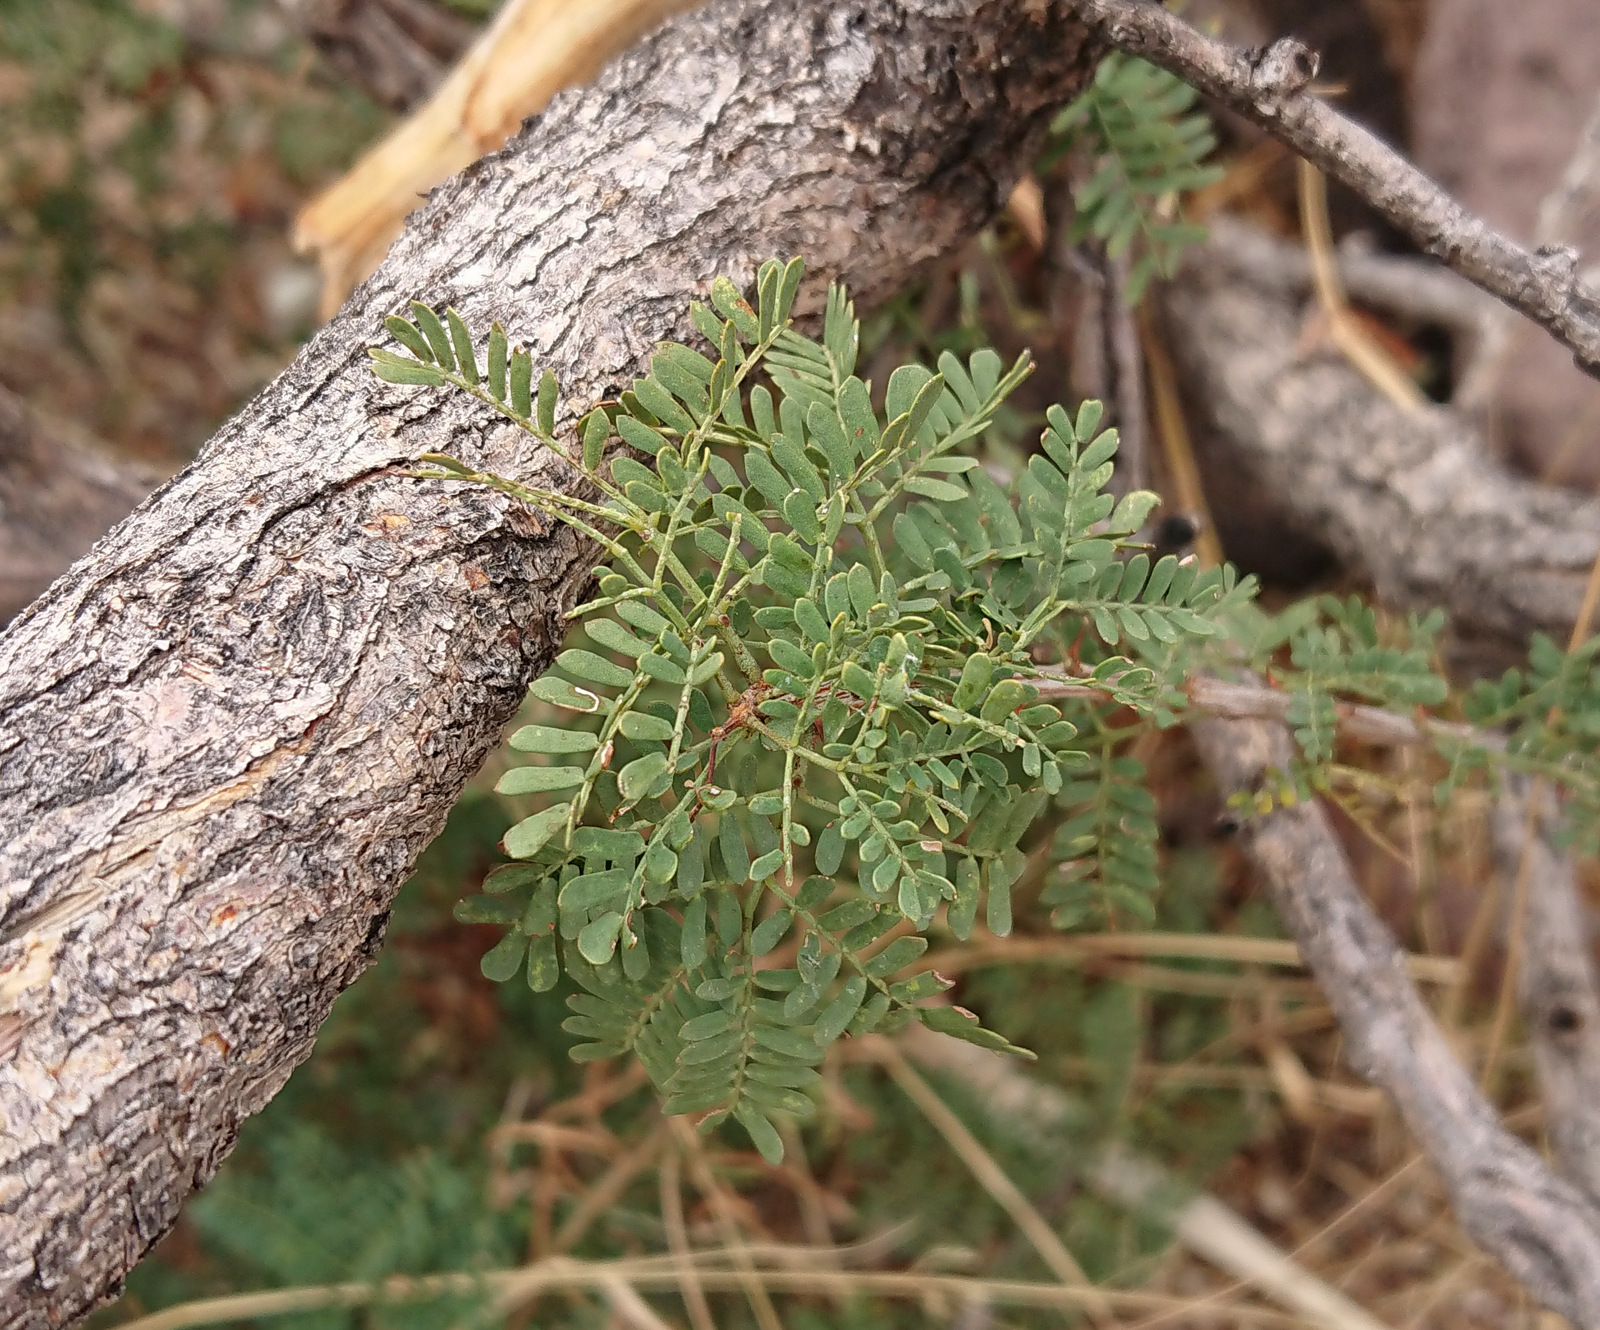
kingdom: Plantae
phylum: Tracheophyta
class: Magnoliopsida
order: Fabales
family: Fabaceae
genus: Senegalia
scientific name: Senegalia greggii
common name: Texas-mimosa
